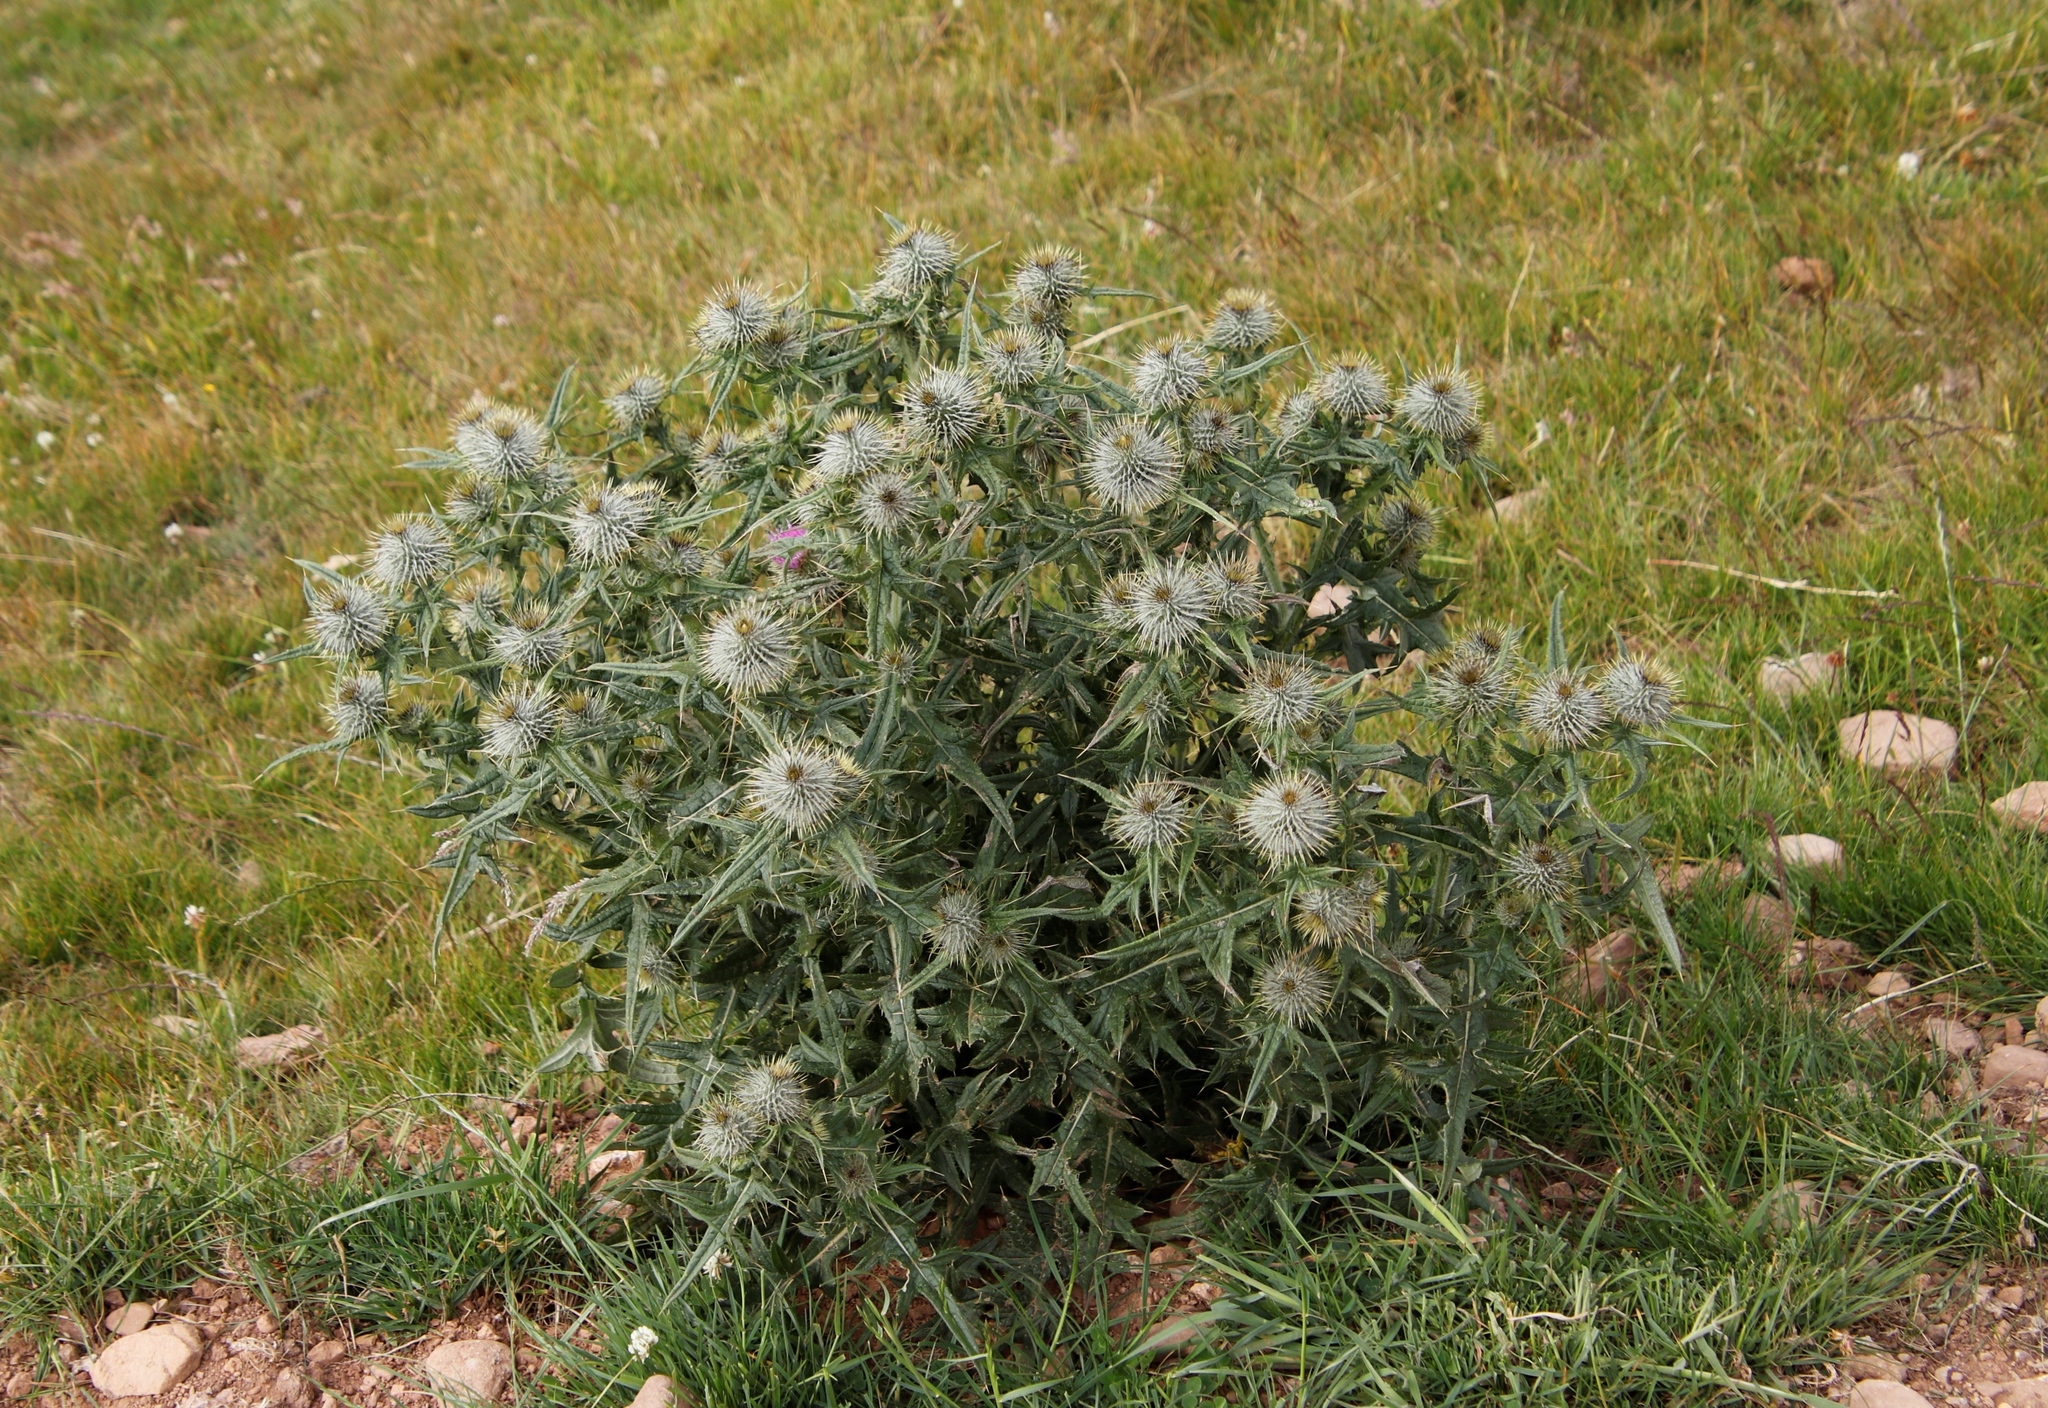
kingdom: Plantae
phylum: Tracheophyta
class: Magnoliopsida
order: Asterales
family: Asteraceae
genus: Cirsium
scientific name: Cirsium vulgare
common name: Bull thistle
